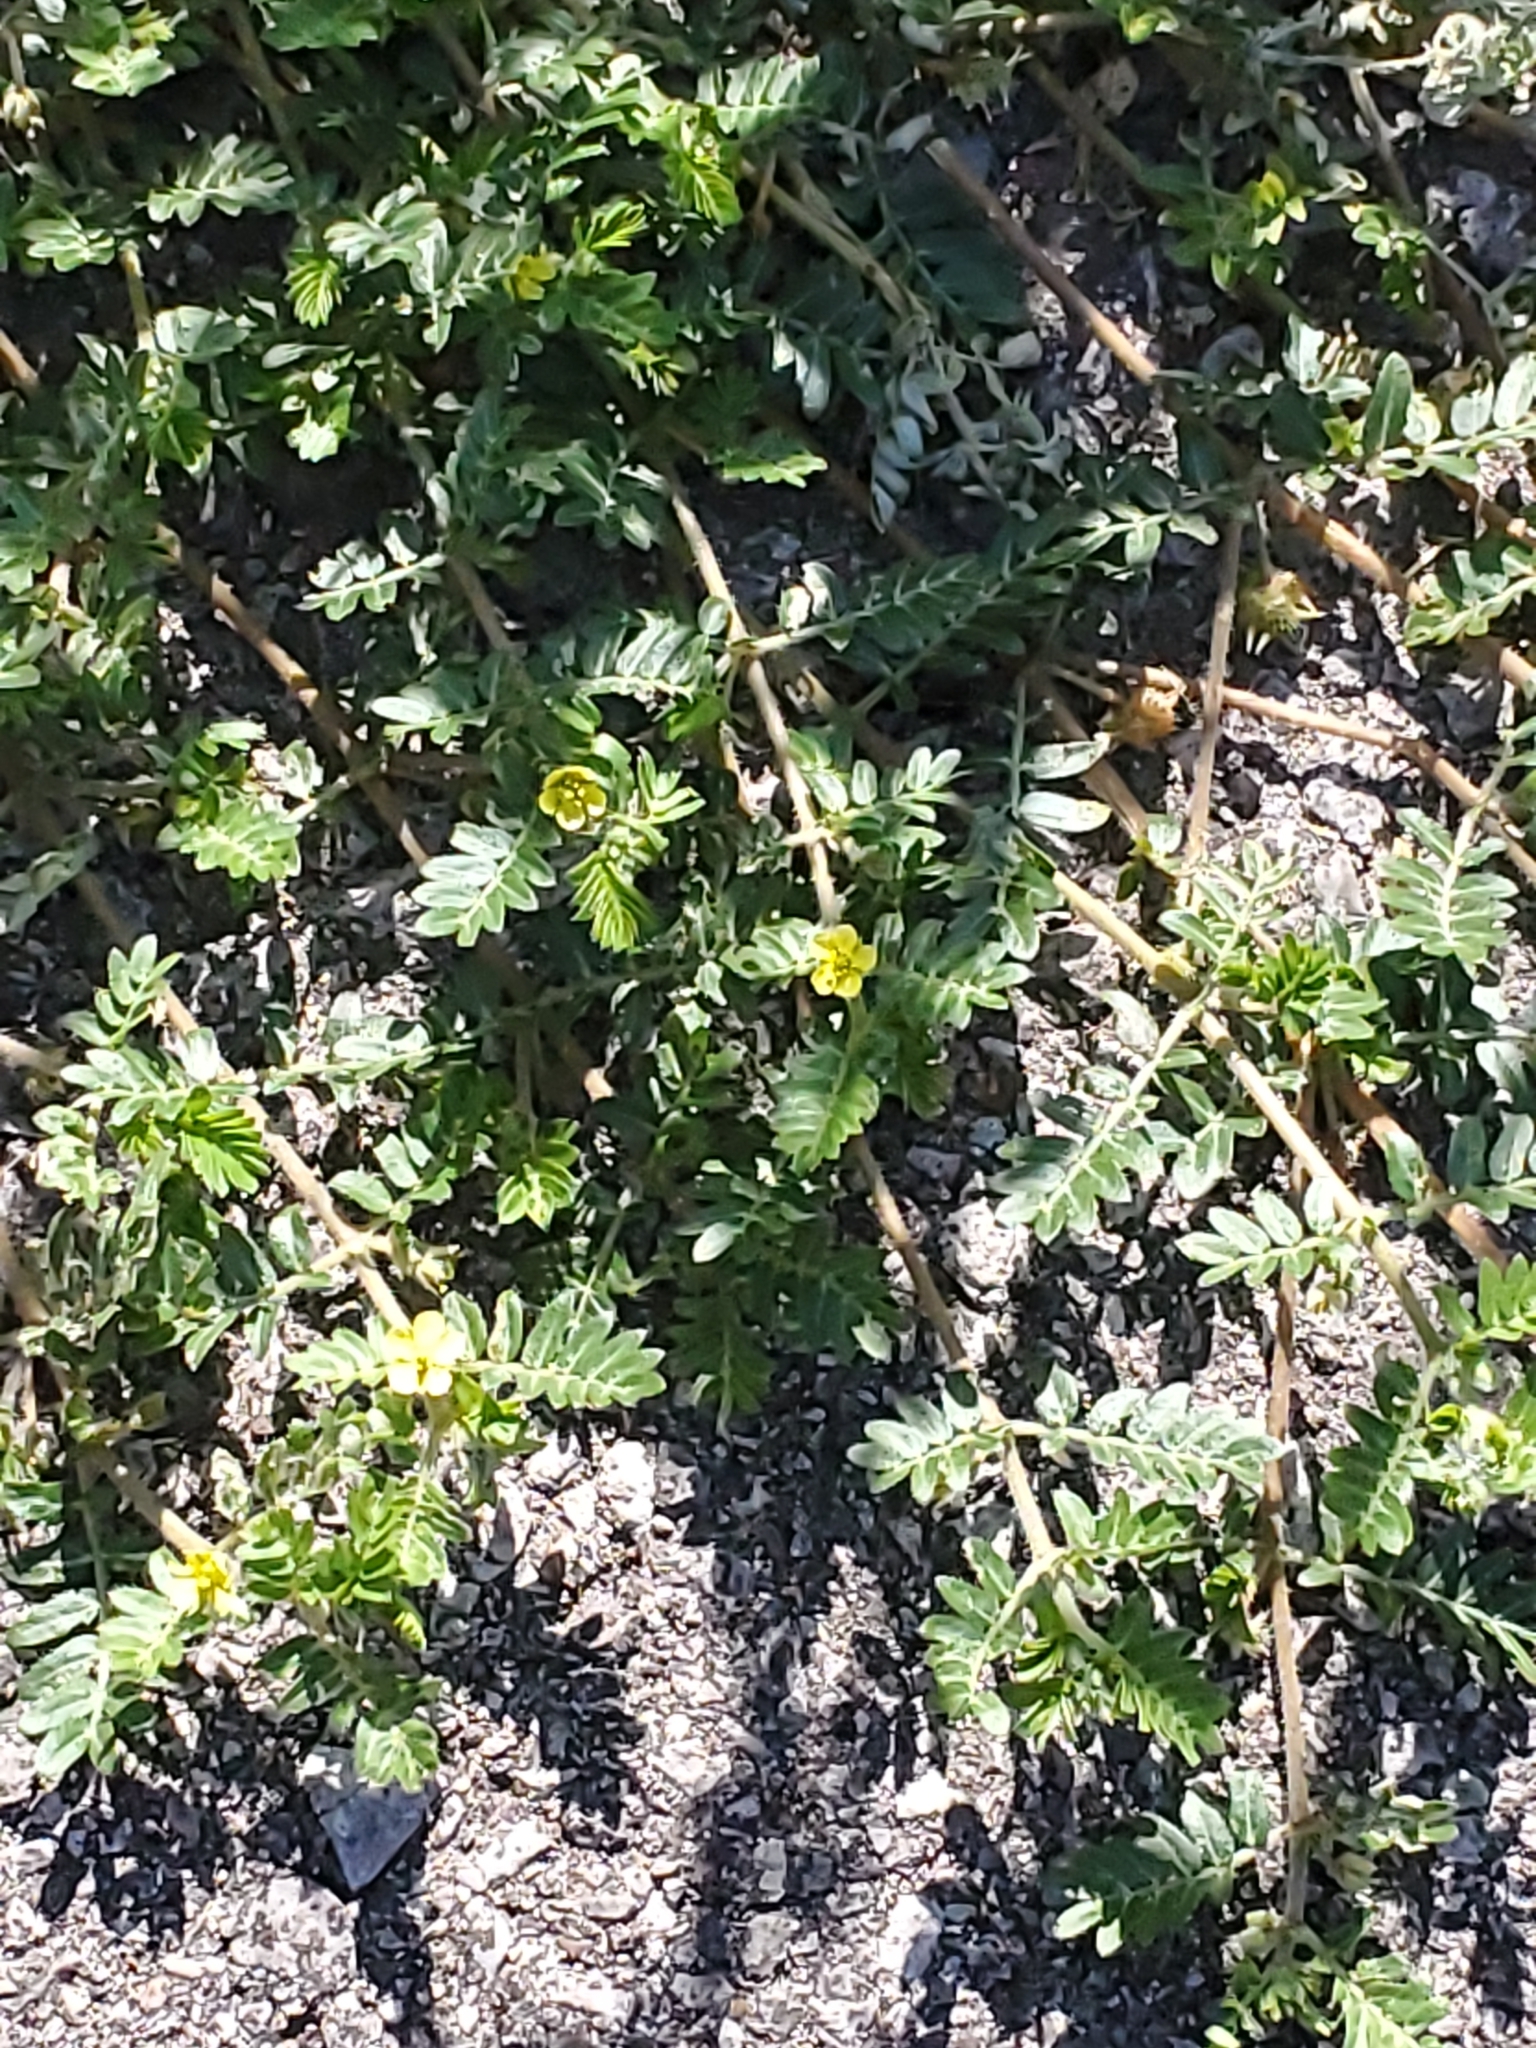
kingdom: Plantae
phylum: Tracheophyta
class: Magnoliopsida
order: Zygophyllales
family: Zygophyllaceae
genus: Tribulus
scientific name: Tribulus terrestris
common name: Puncturevine
